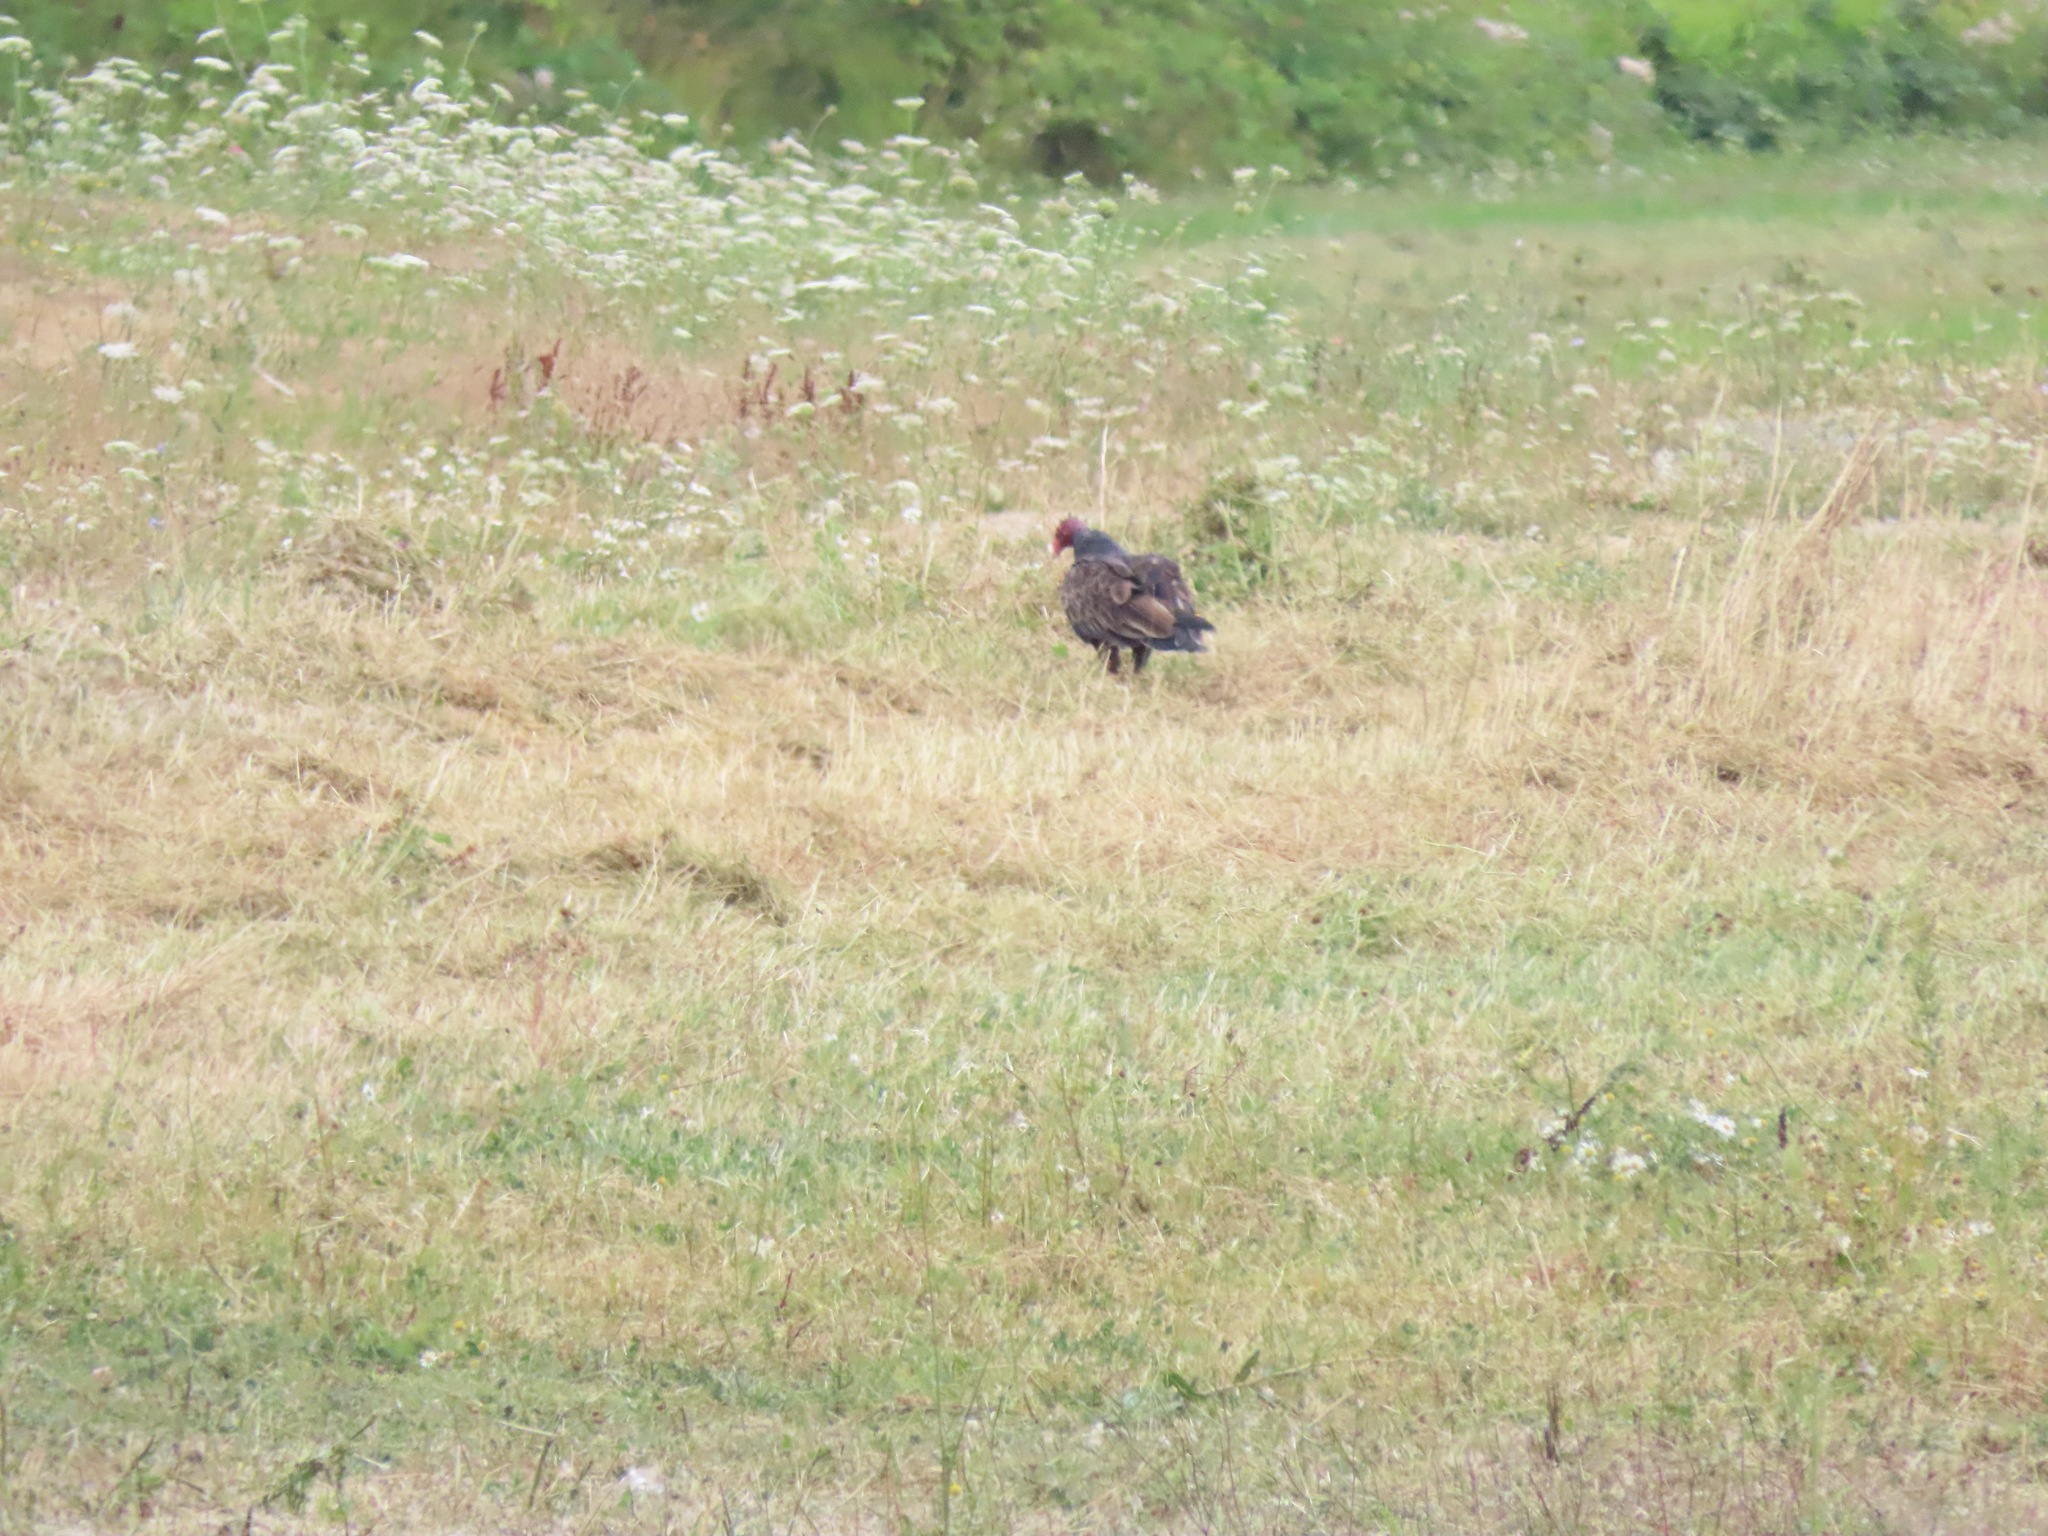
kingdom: Animalia
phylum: Chordata
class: Aves
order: Accipitriformes
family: Cathartidae
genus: Cathartes
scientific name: Cathartes aura
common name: Turkey vulture
